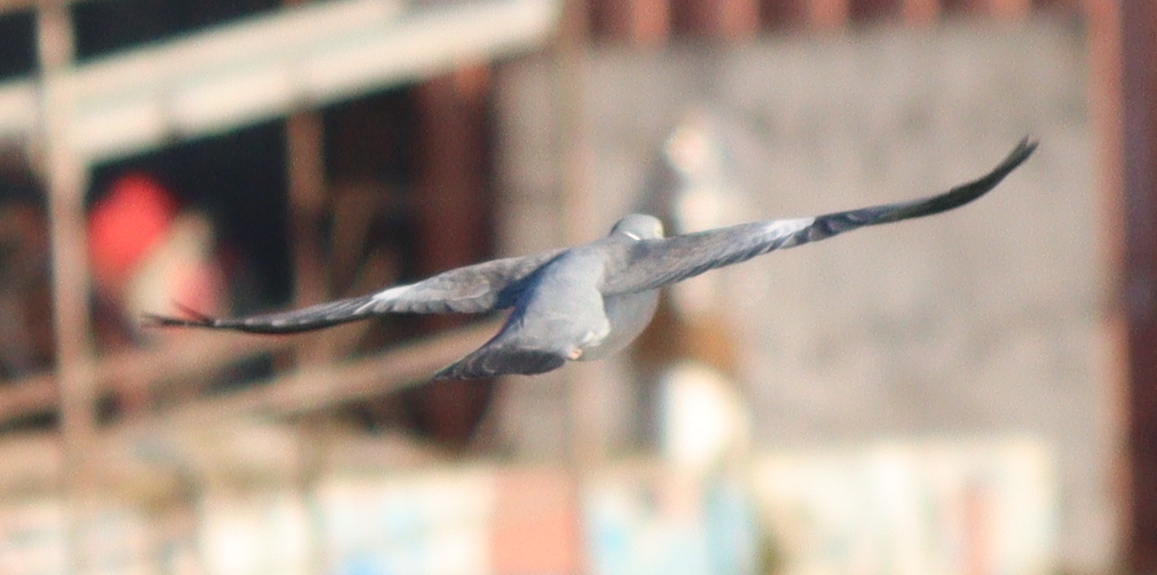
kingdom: Animalia
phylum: Chordata
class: Aves
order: Columbiformes
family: Columbidae
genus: Columba
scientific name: Columba palumbus
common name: Common wood pigeon
